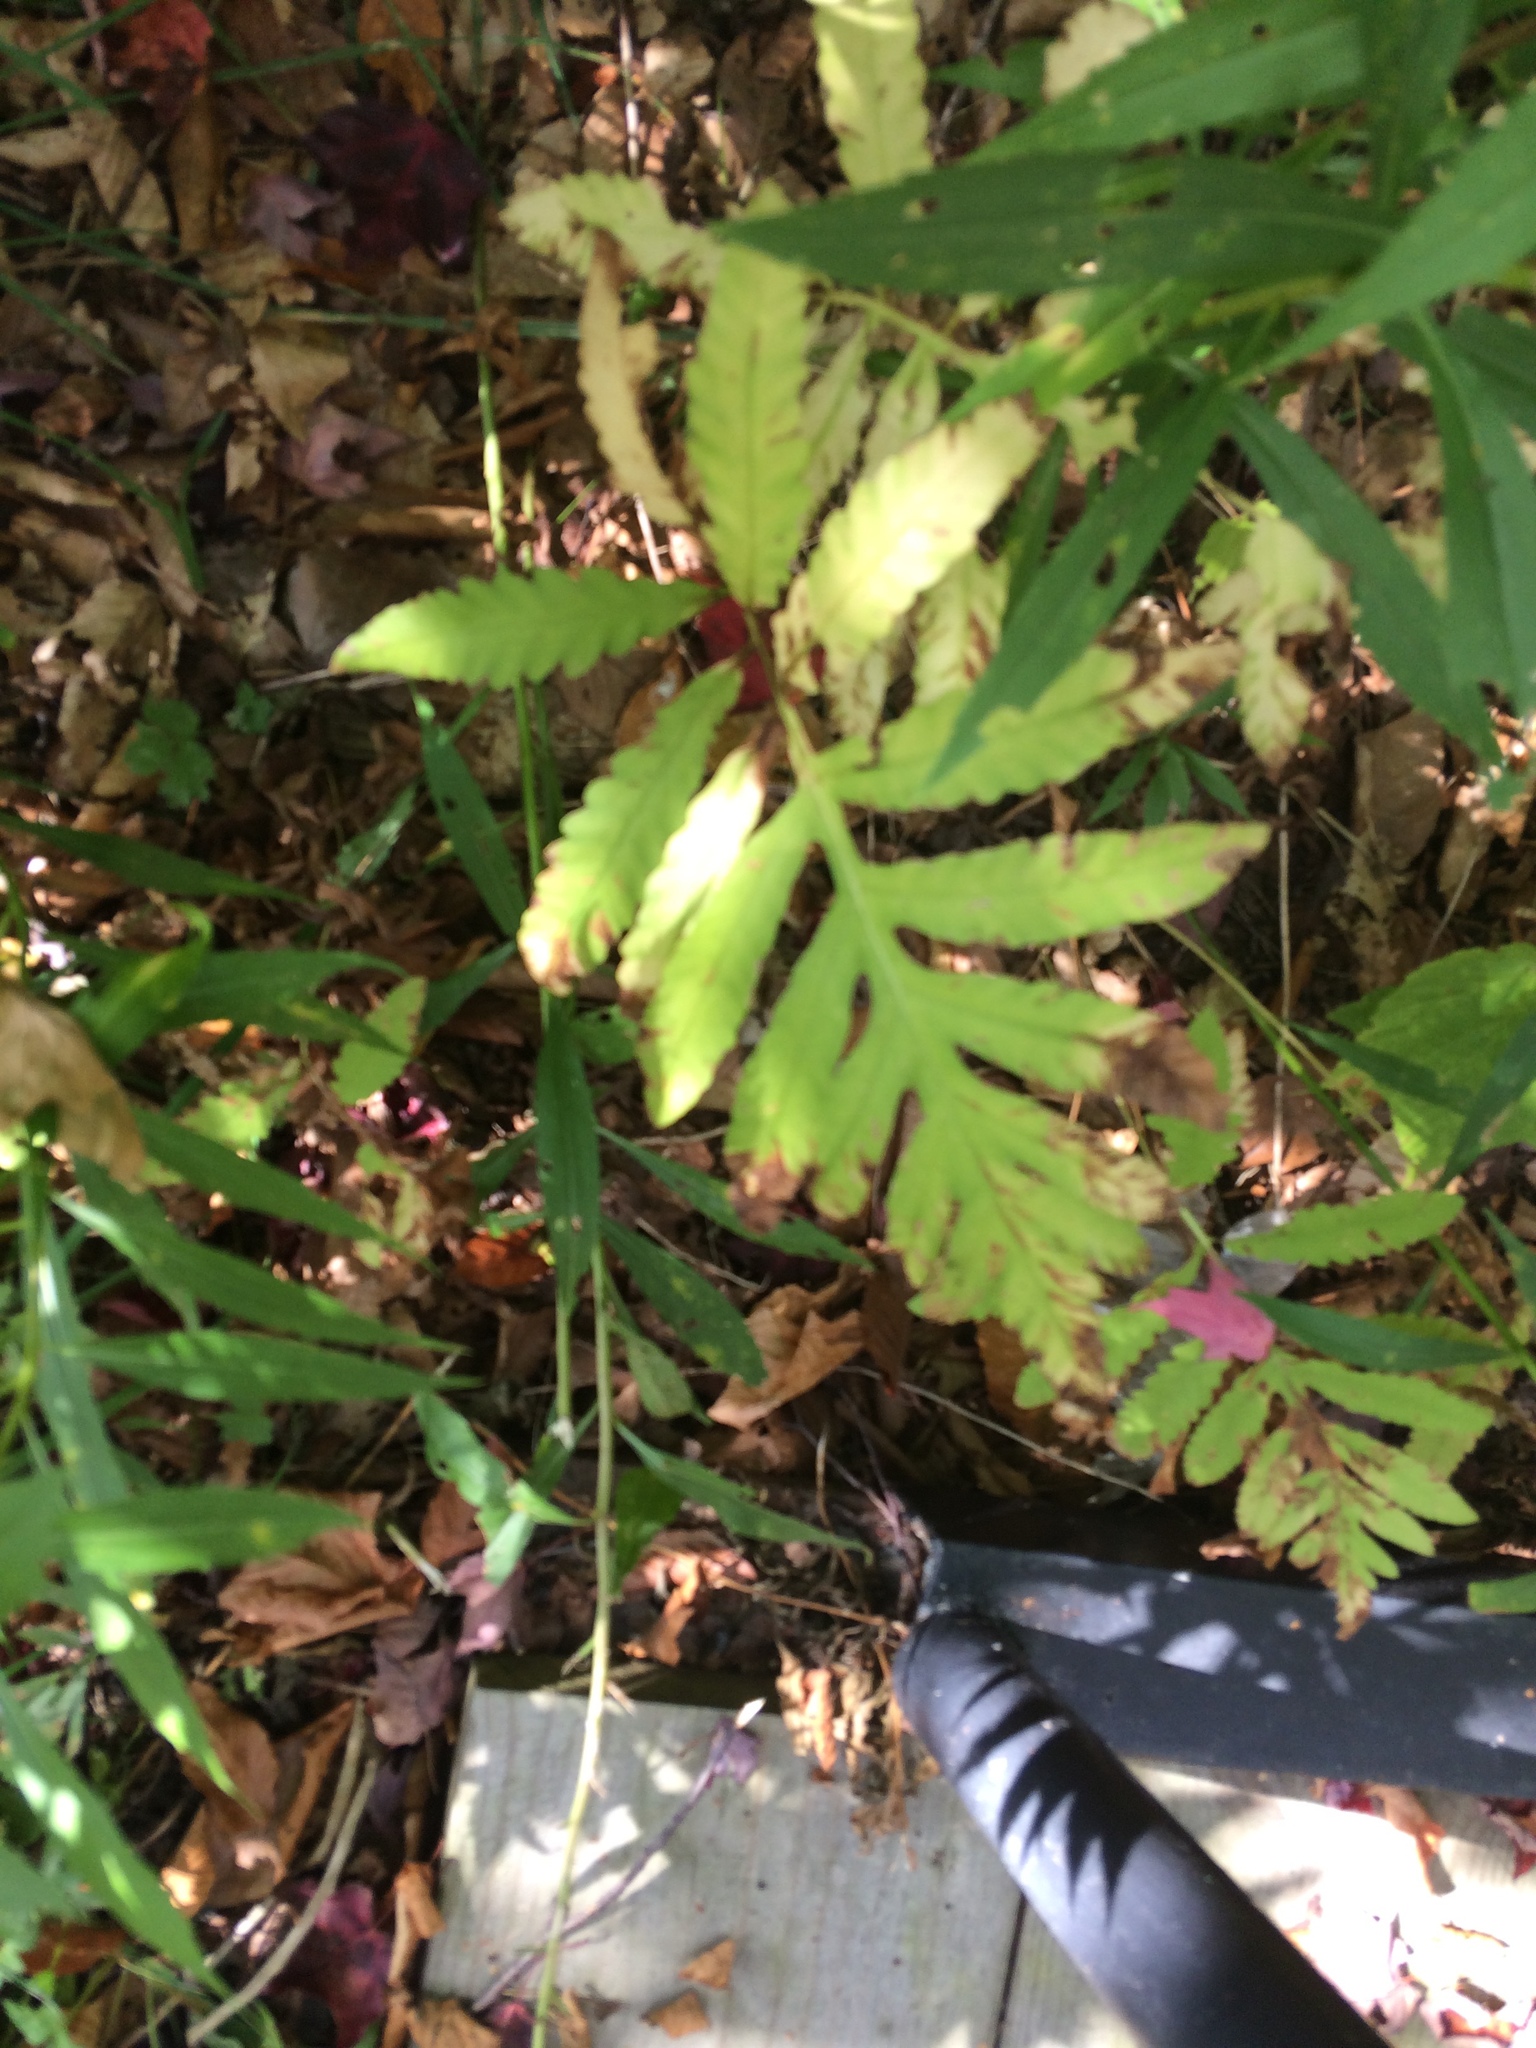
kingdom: Plantae
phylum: Tracheophyta
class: Polypodiopsida
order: Polypodiales
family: Onocleaceae
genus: Onoclea
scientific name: Onoclea sensibilis
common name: Sensitive fern
